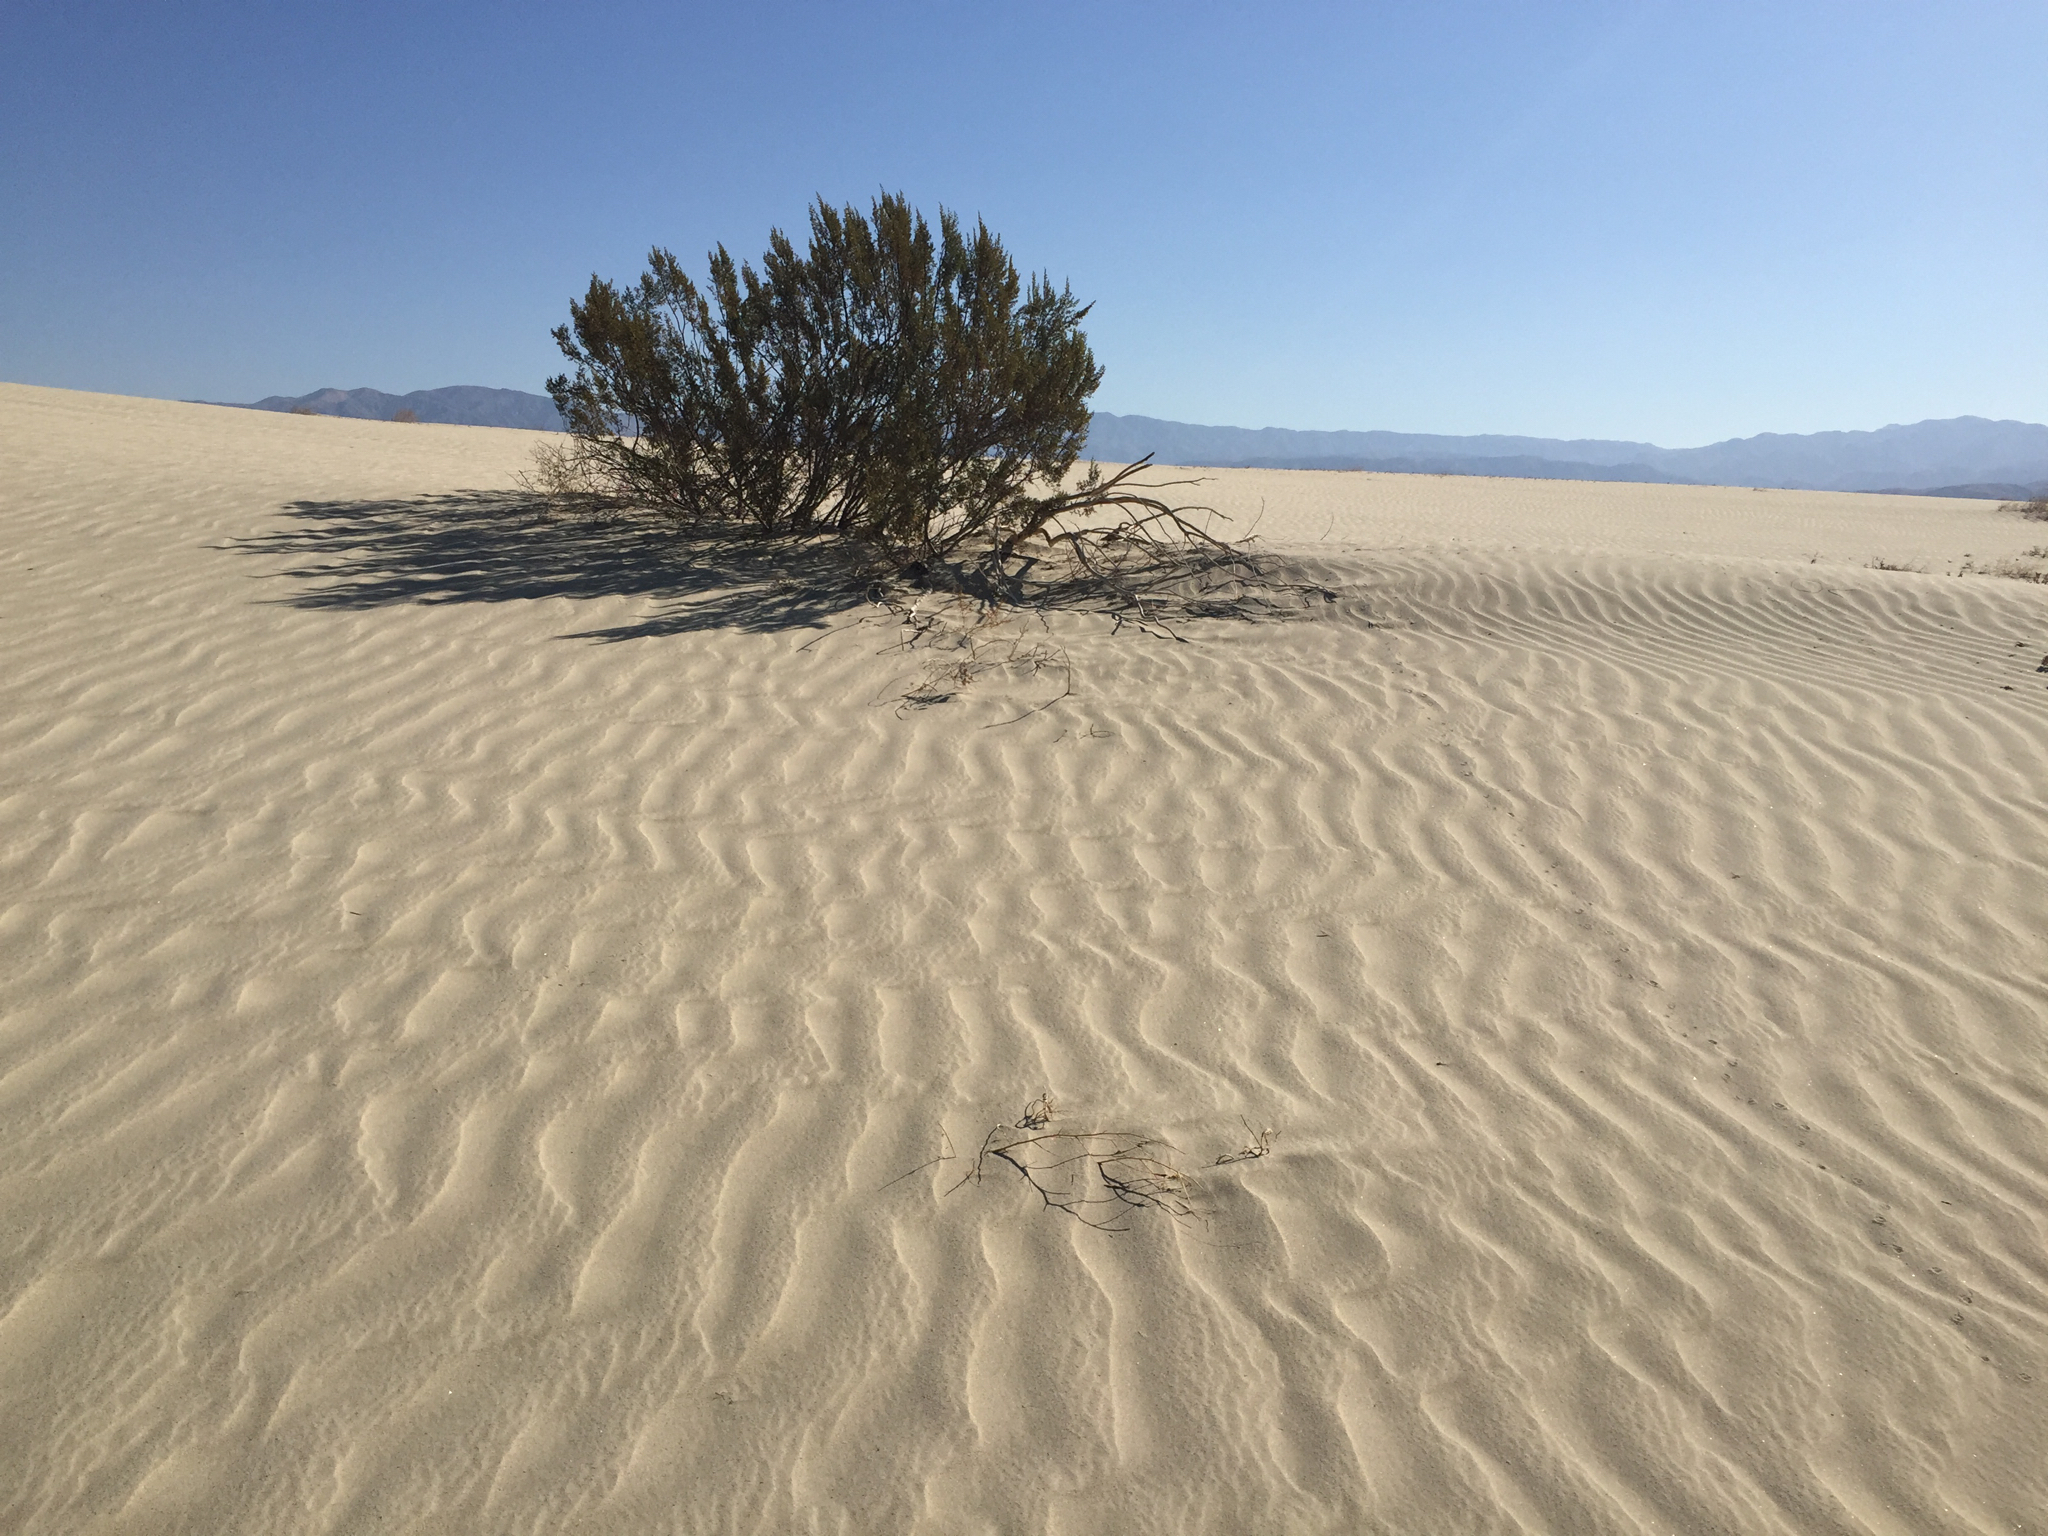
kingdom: Plantae
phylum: Tracheophyta
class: Magnoliopsida
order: Zygophyllales
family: Zygophyllaceae
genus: Larrea
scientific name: Larrea tridentata
